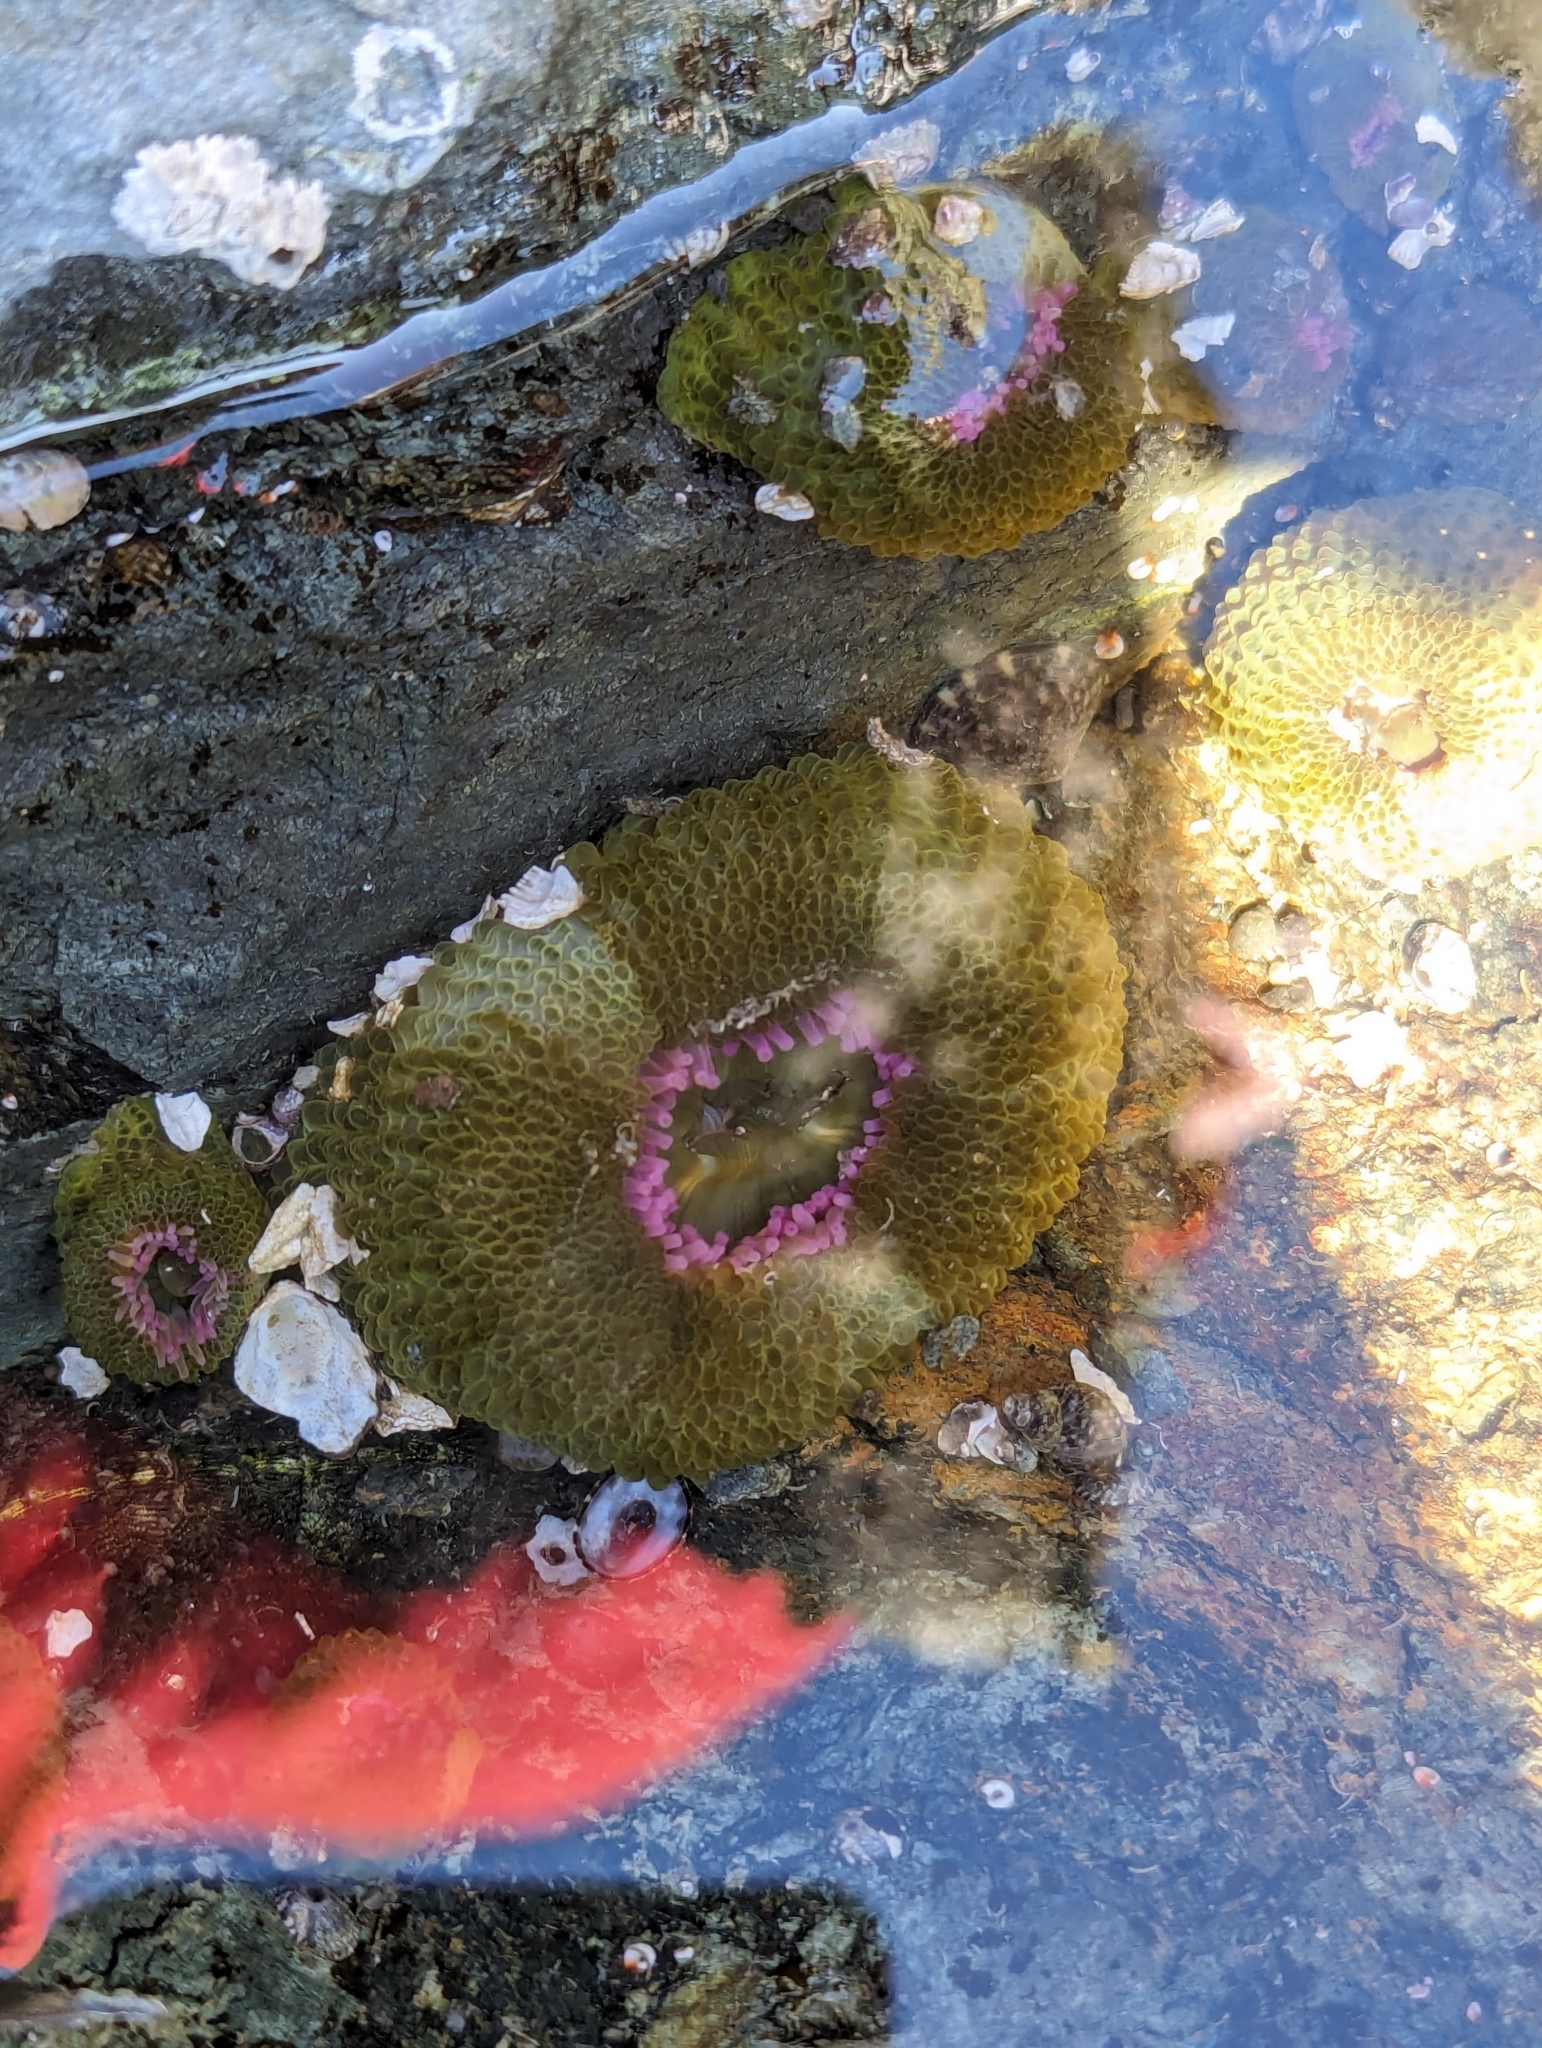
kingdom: Animalia
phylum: Cnidaria
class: Anthozoa
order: Actiniaria
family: Actiniidae
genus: Anthopleura
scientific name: Anthopleura elegantissima
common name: Clonal anemone
